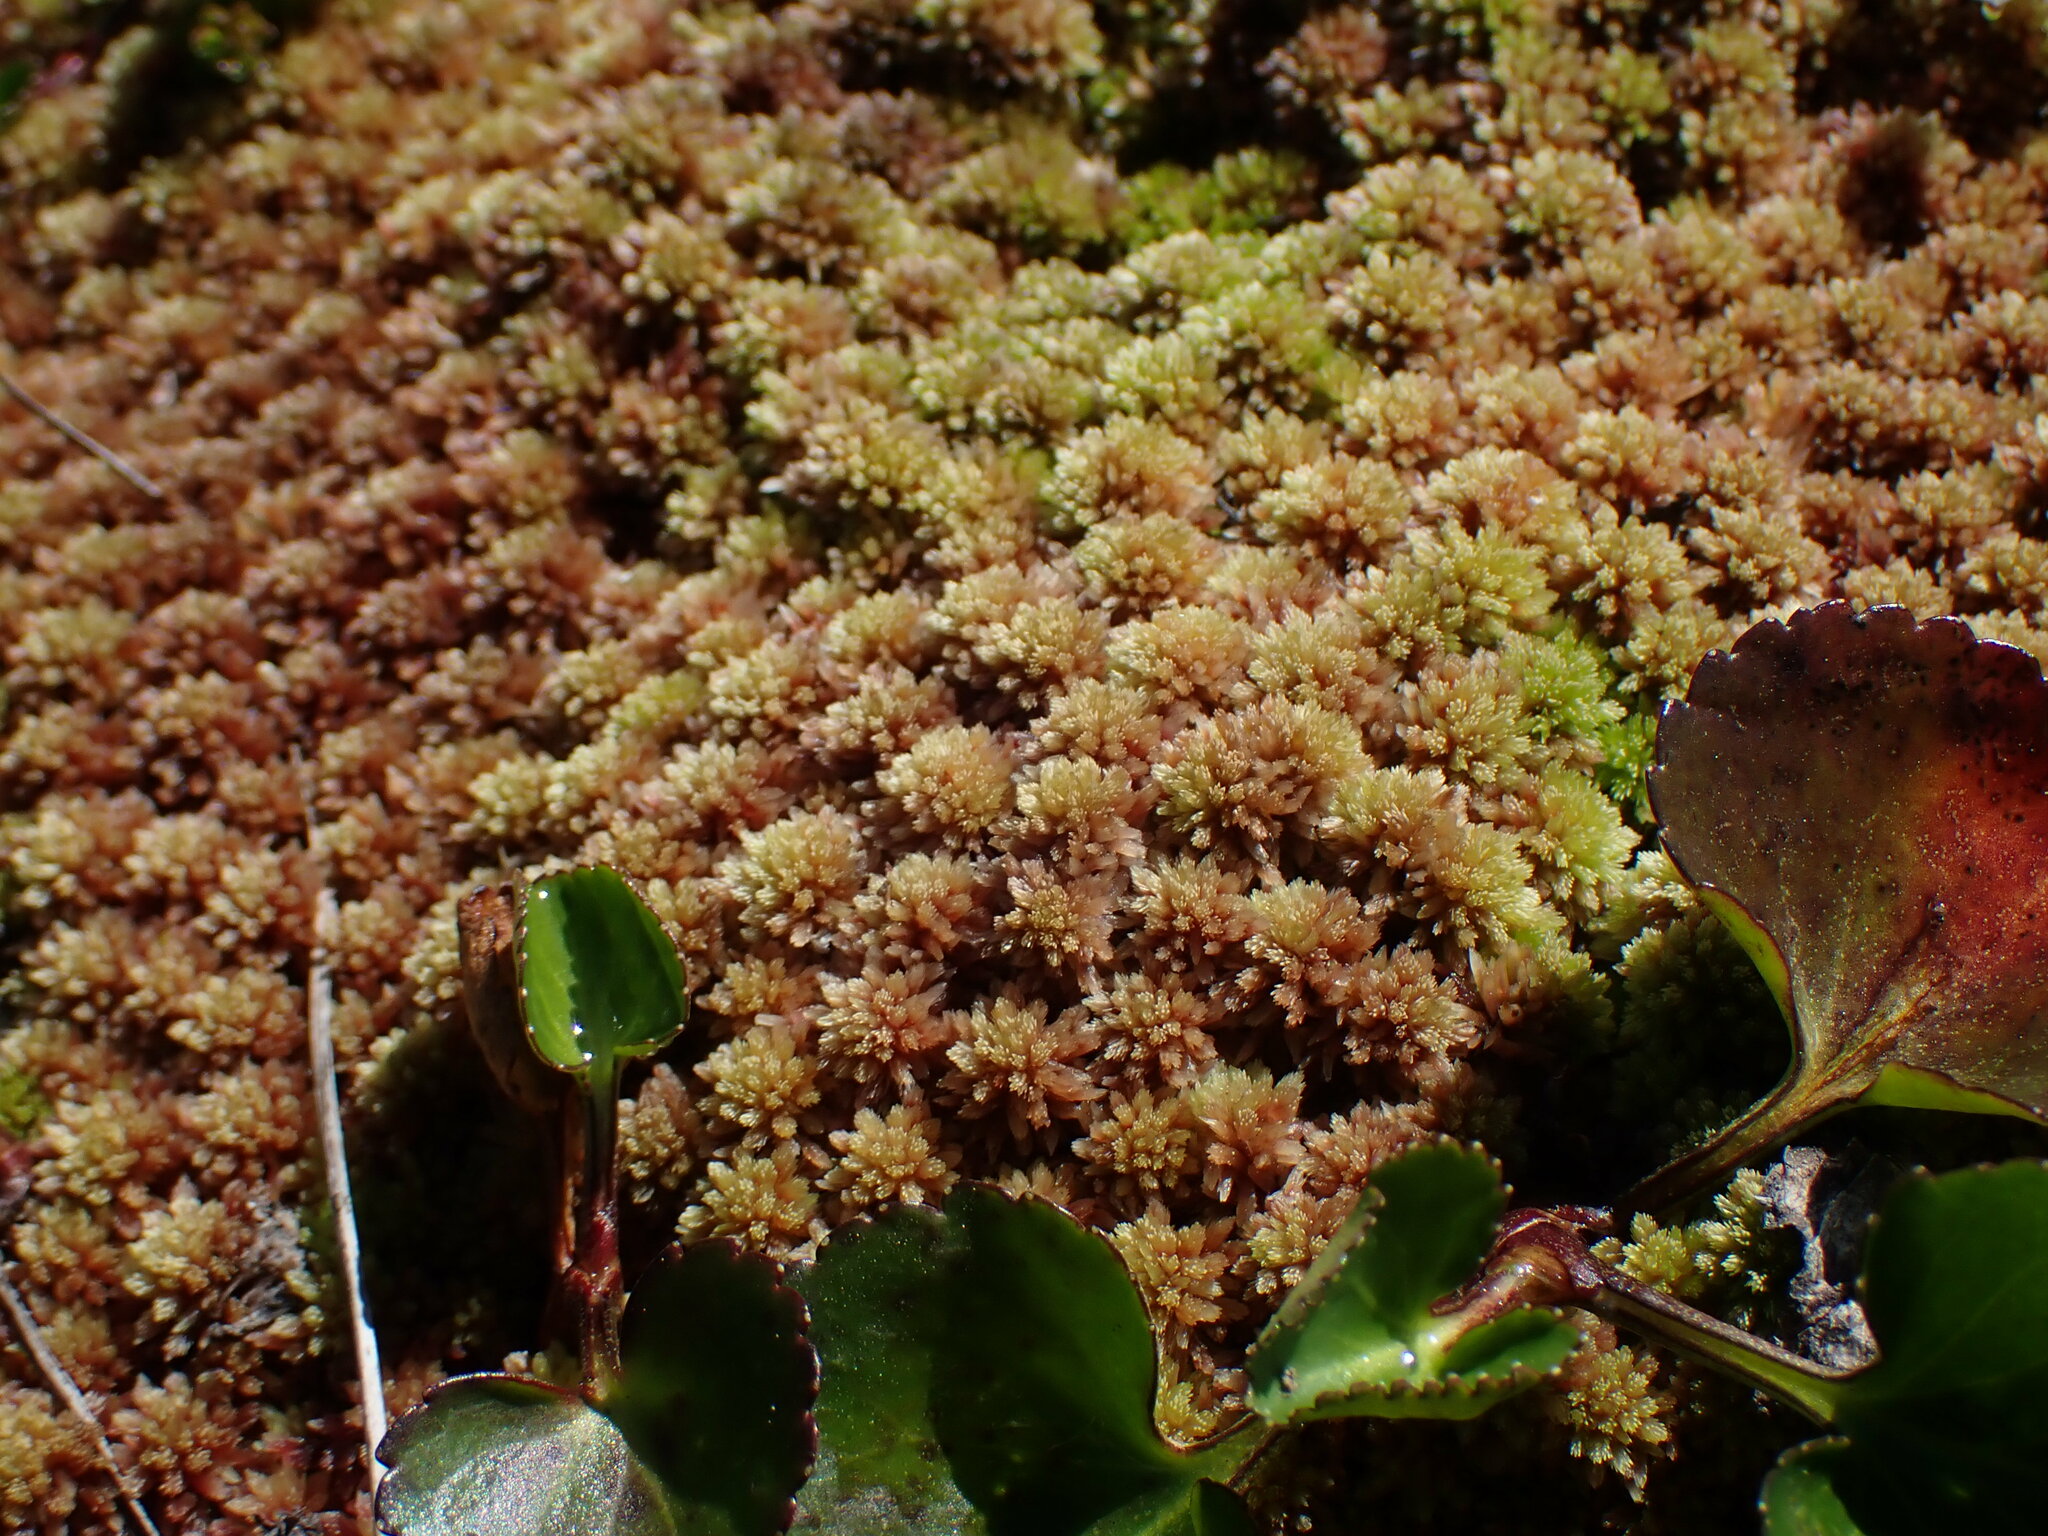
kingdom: Plantae
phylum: Bryophyta
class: Sphagnopsida
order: Sphagnales
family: Sphagnaceae
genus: Sphagnum
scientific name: Sphagnum capillifolium
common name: Small red peat moss
